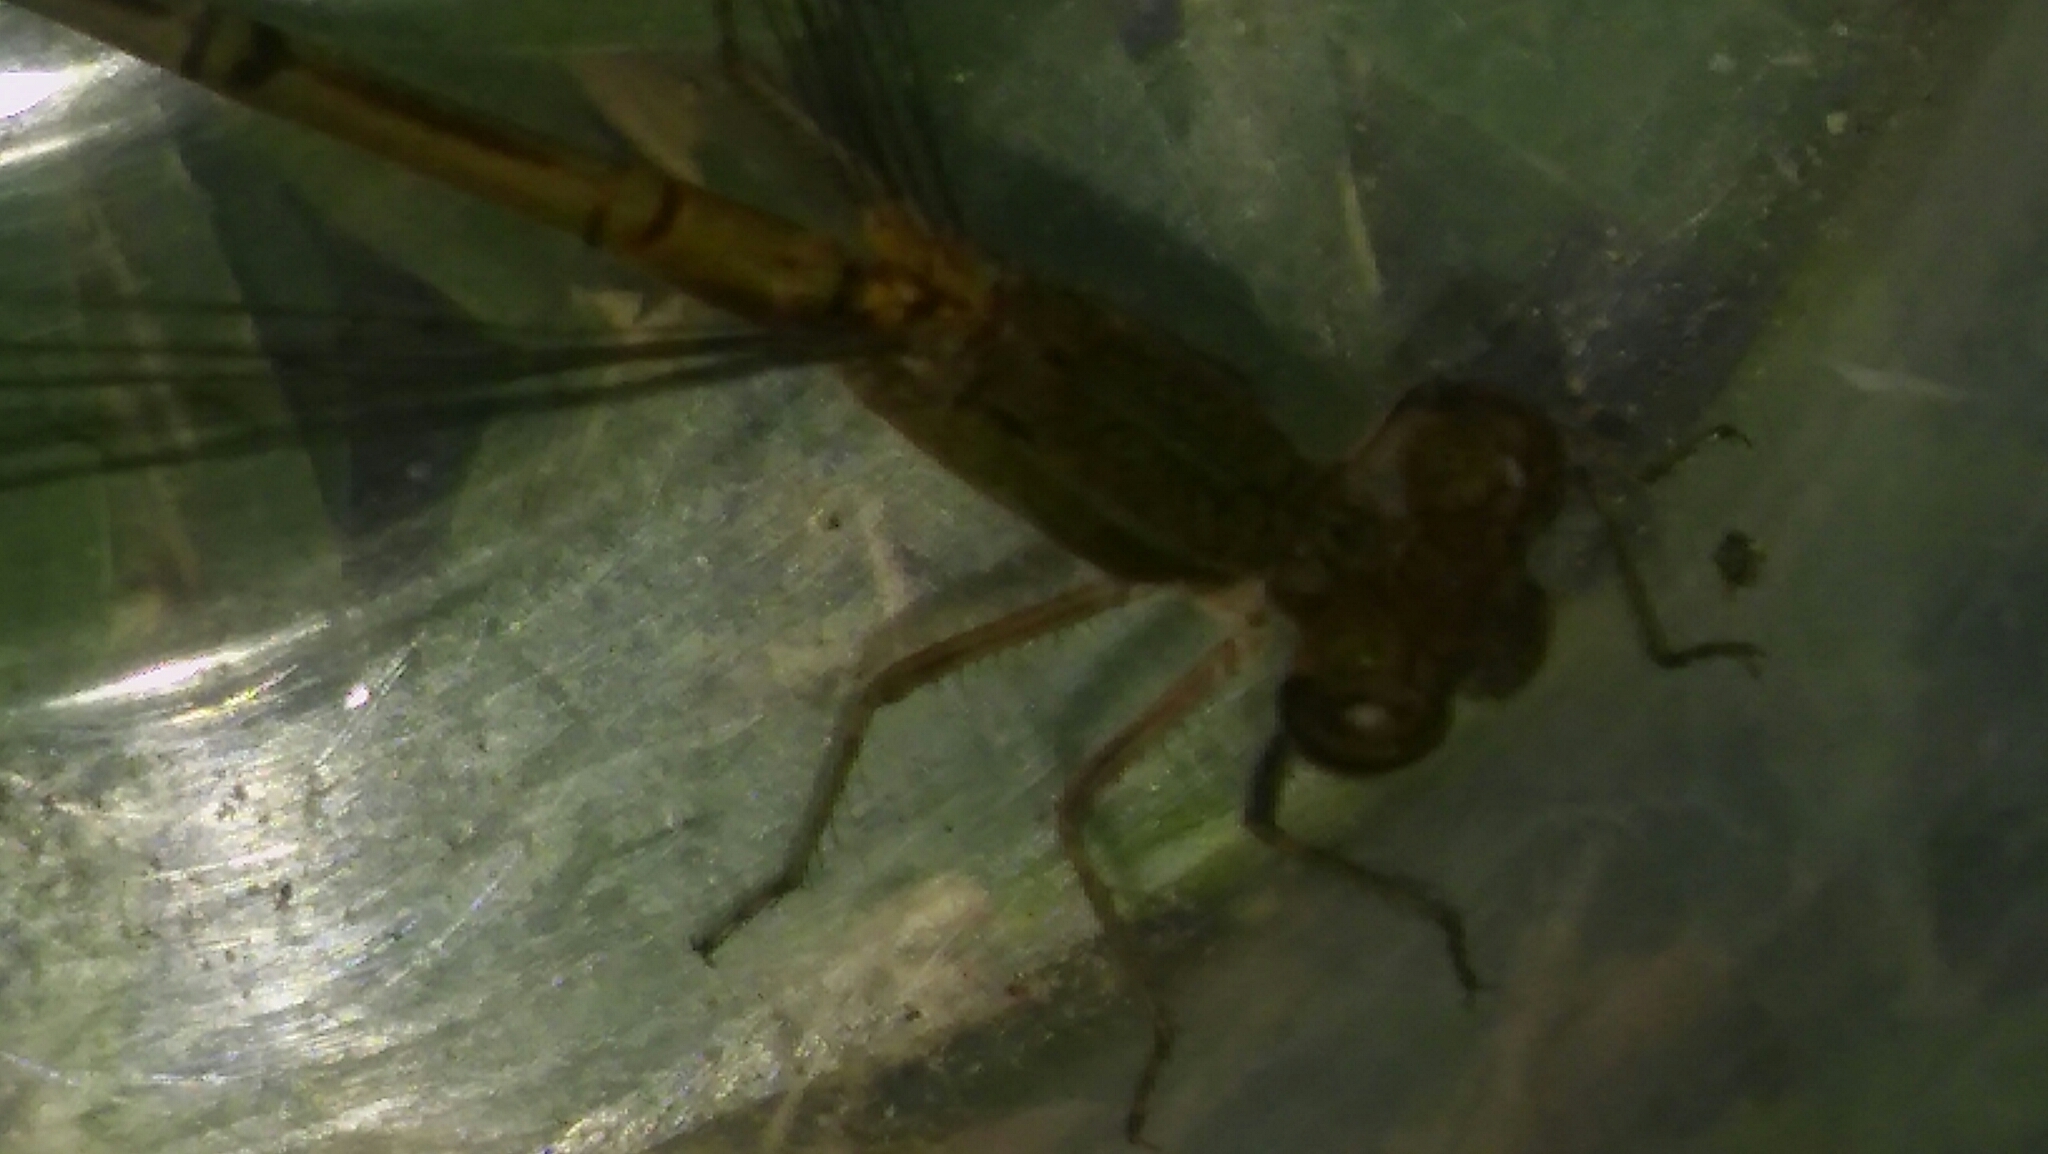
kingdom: Animalia
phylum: Arthropoda
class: Insecta
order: Odonata
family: Coenagrionidae
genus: Oxyagrion
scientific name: Oxyagrion terminale
